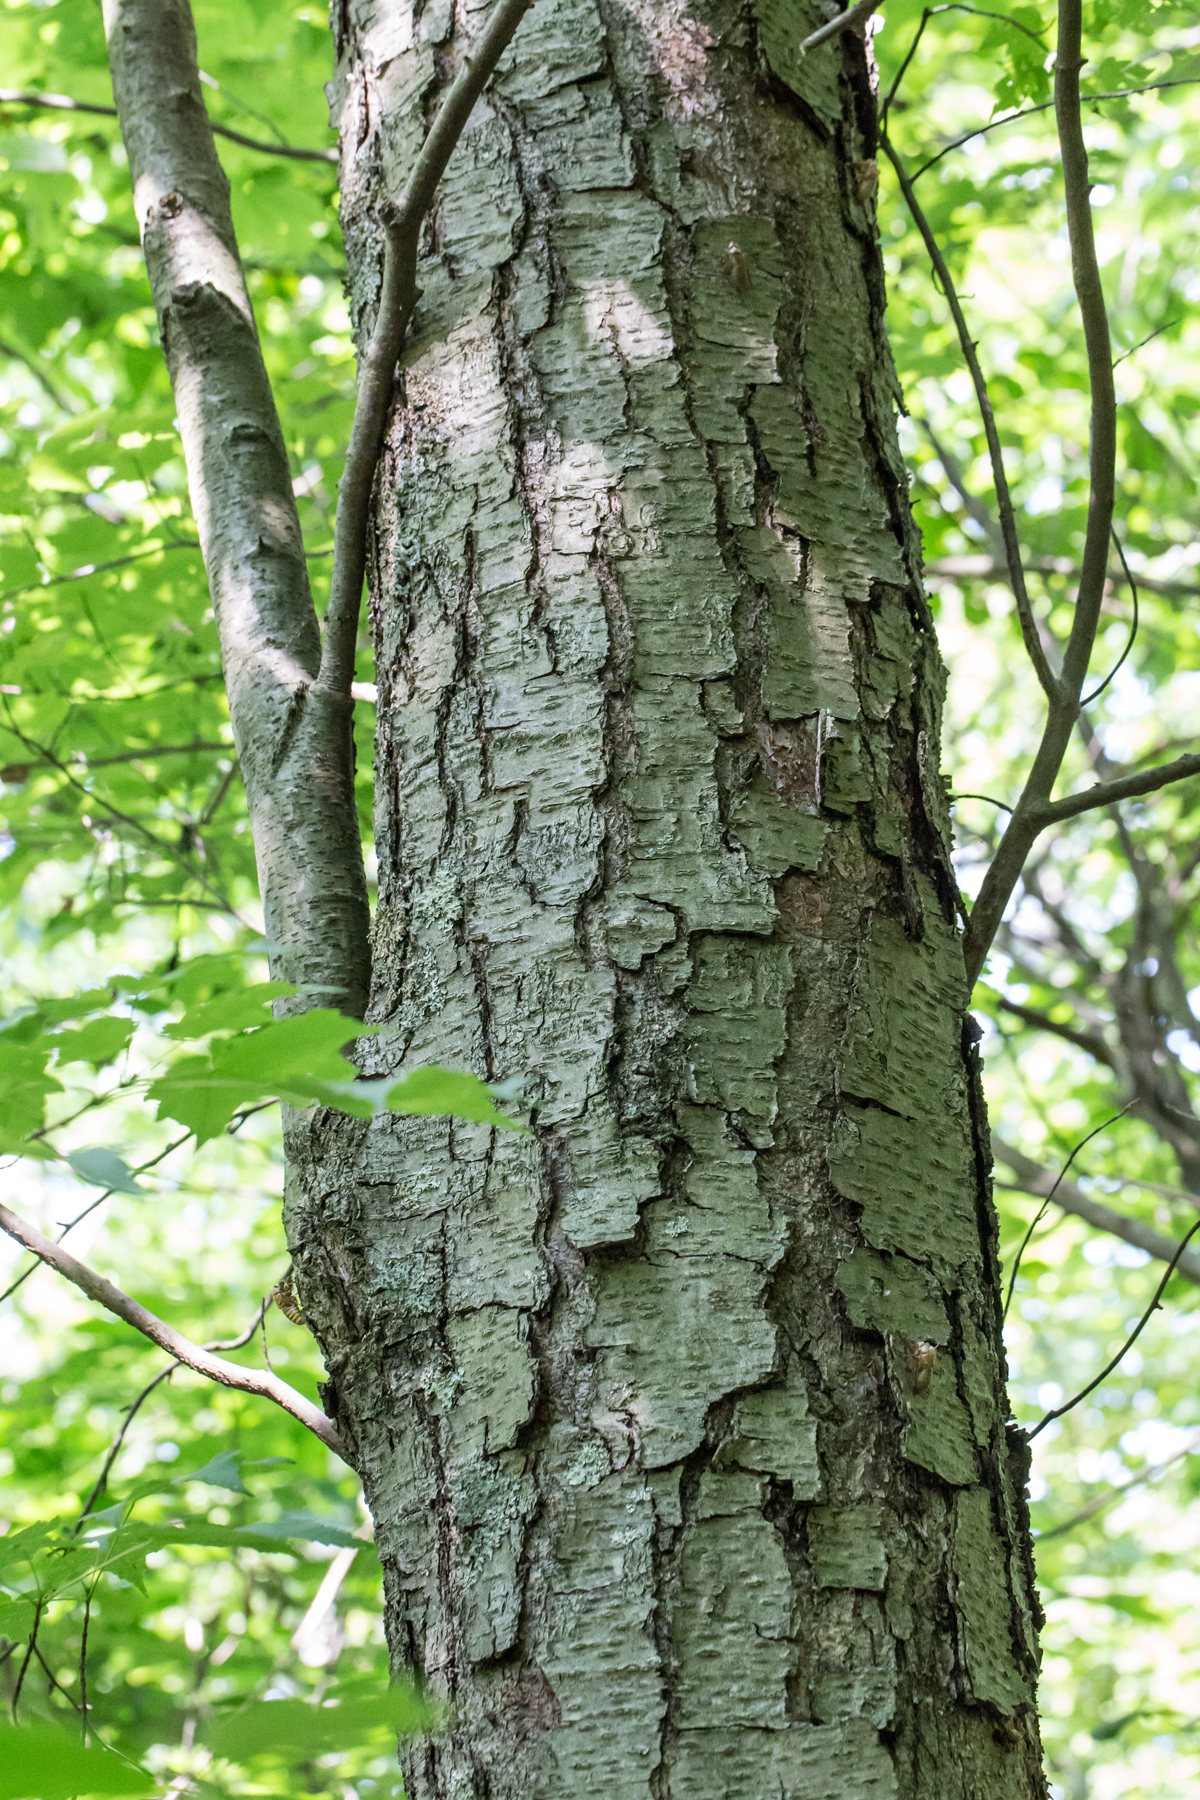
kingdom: Plantae
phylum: Tracheophyta
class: Magnoliopsida
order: Fagales
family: Betulaceae
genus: Betula
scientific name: Betula lenta
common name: Black birch
